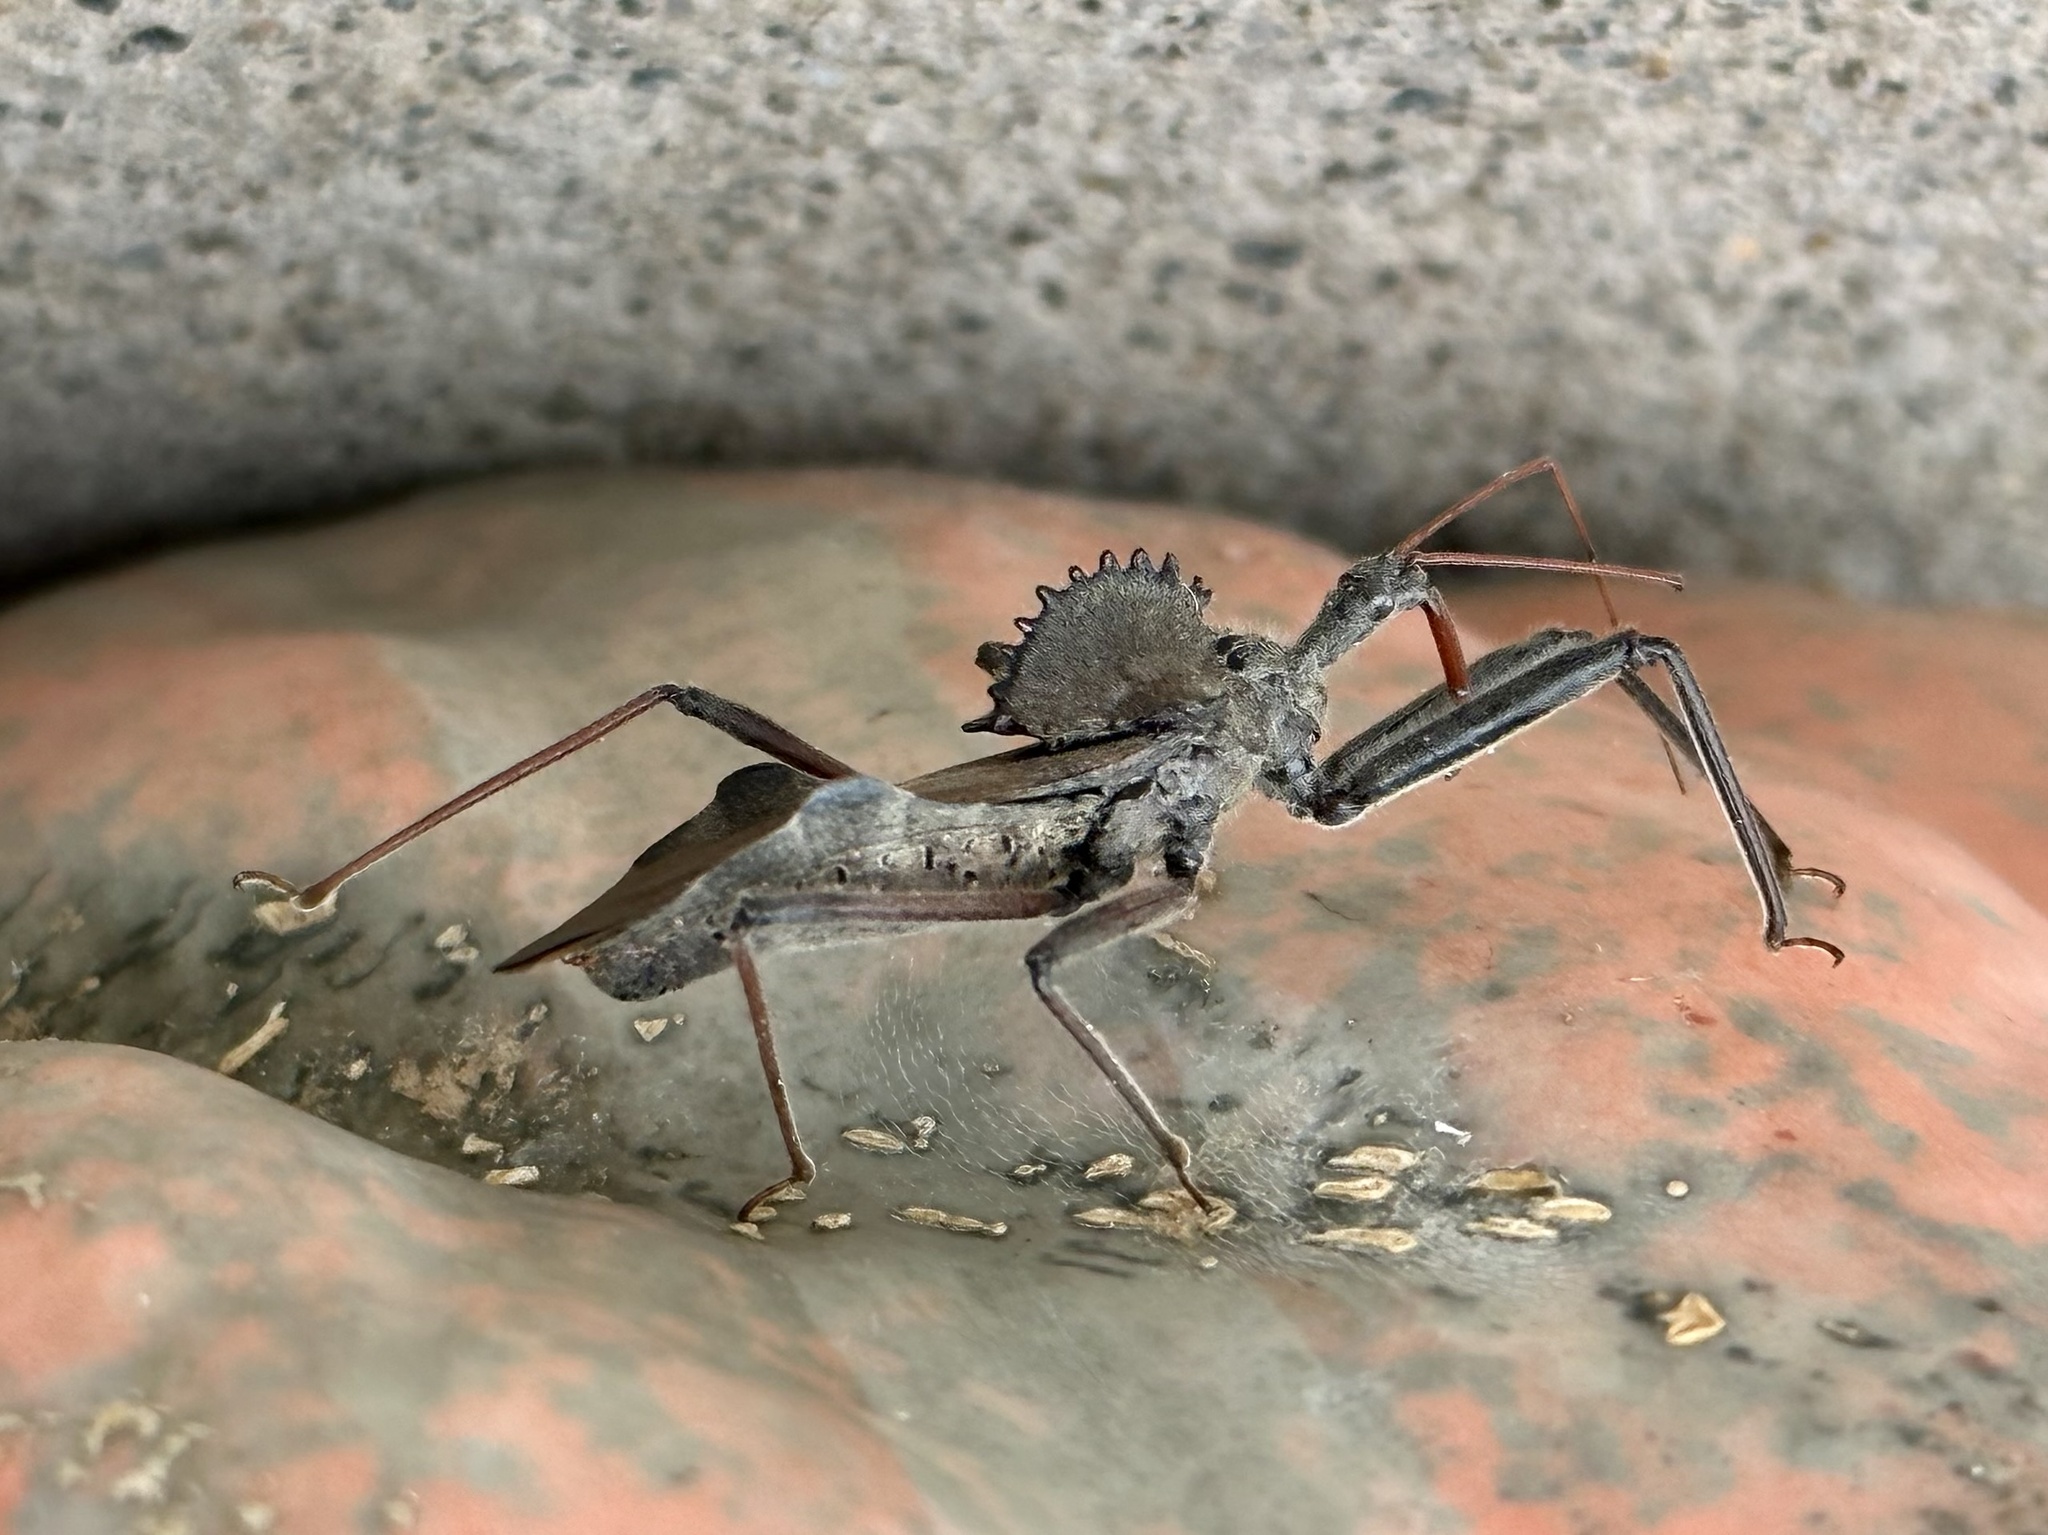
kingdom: Animalia
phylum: Arthropoda
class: Insecta
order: Hemiptera
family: Reduviidae
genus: Arilus
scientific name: Arilus cristatus
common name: North american wheel bug
